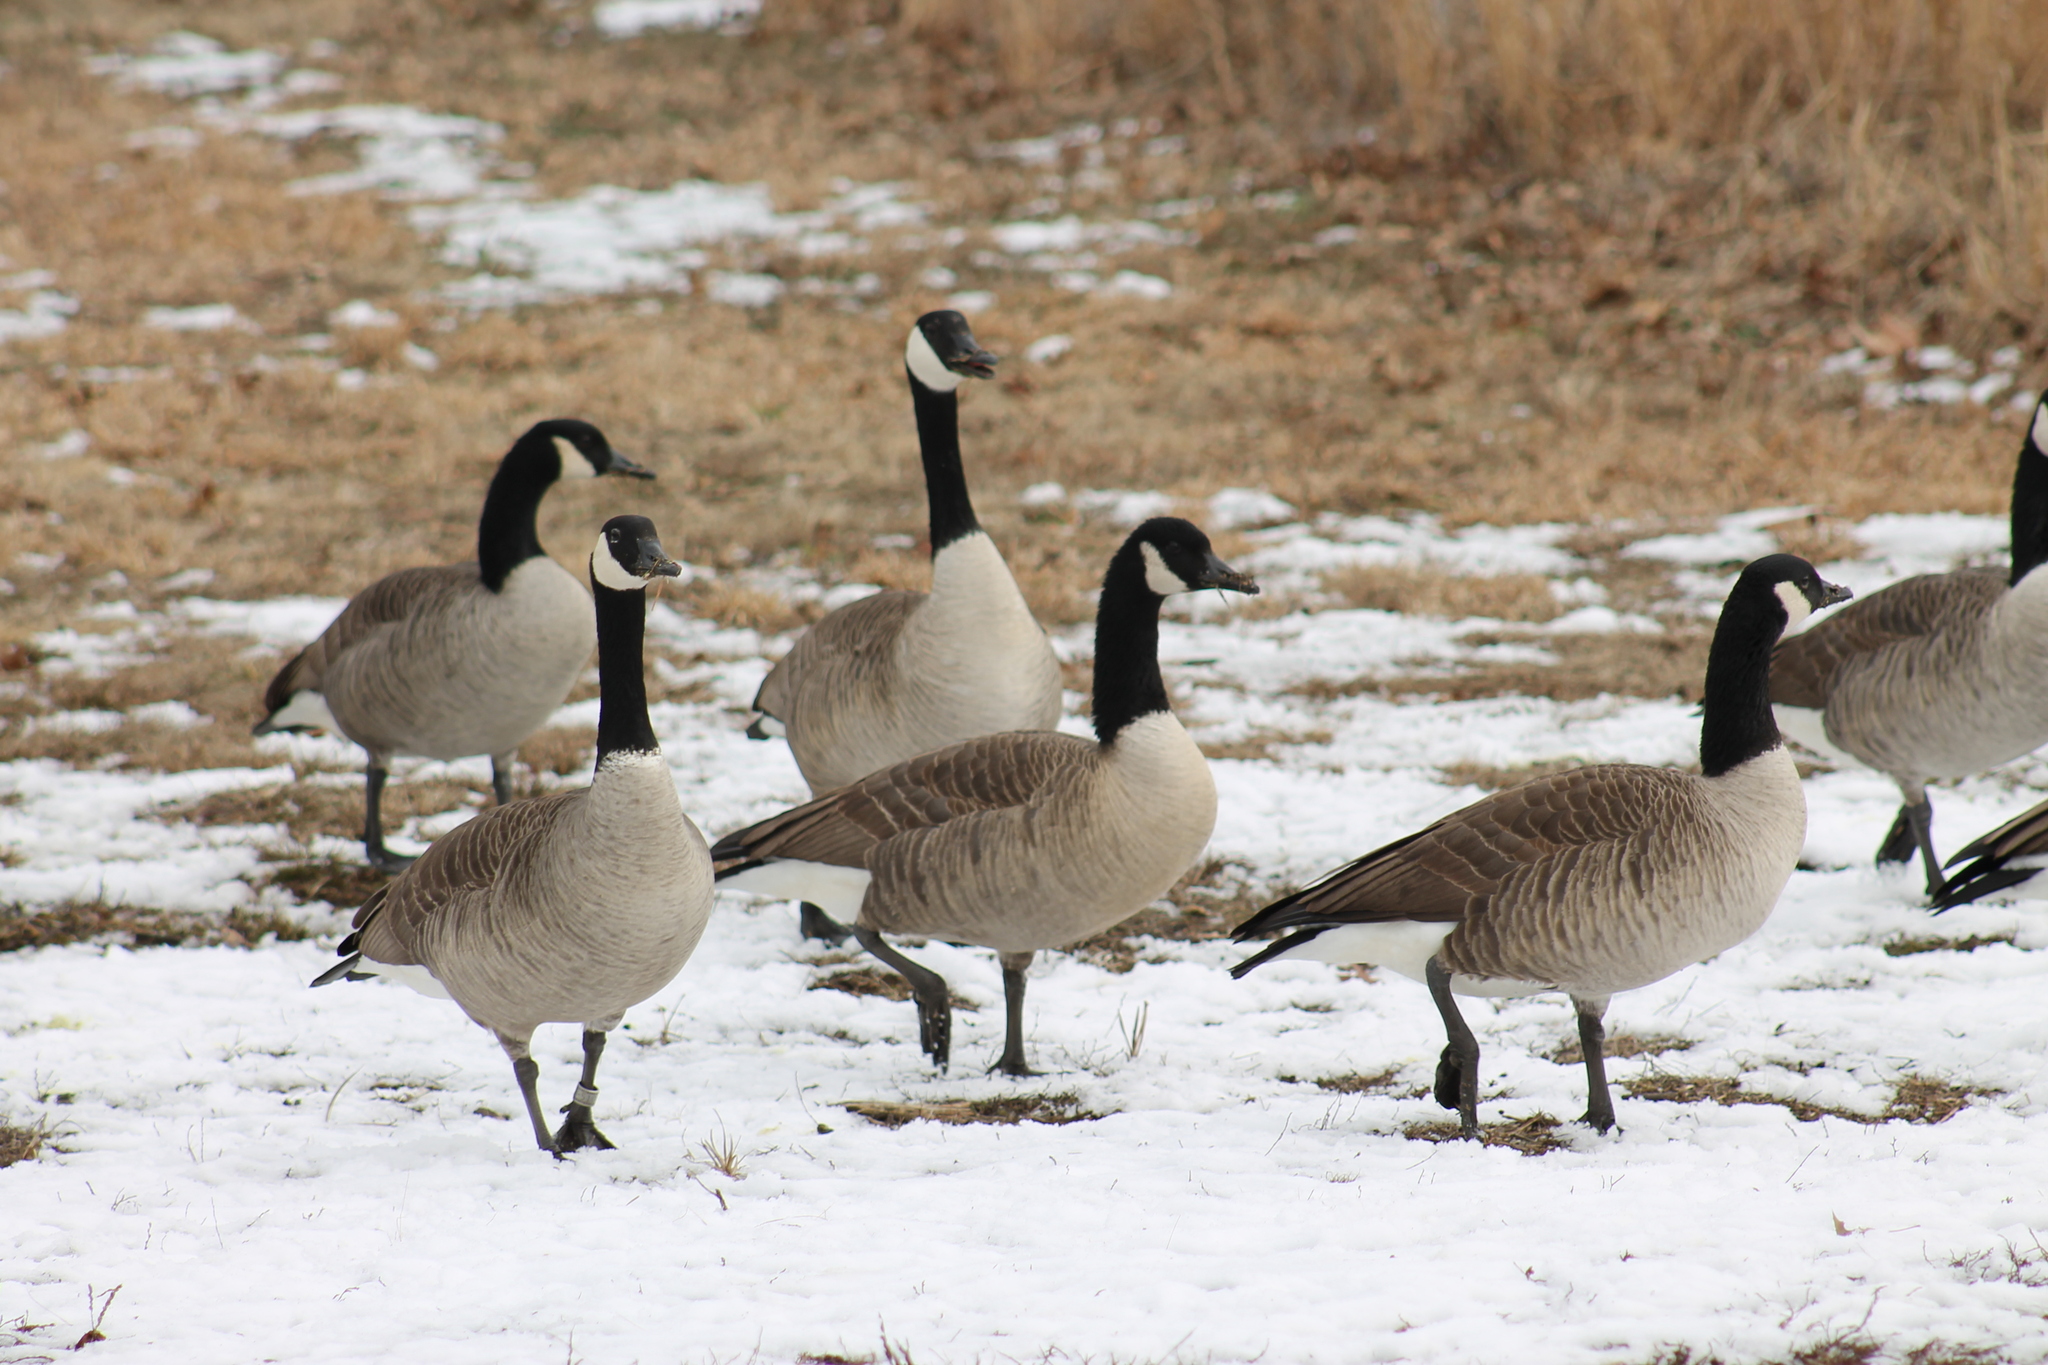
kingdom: Animalia
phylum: Chordata
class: Aves
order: Anseriformes
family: Anatidae
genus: Branta
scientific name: Branta canadensis
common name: Canada goose
